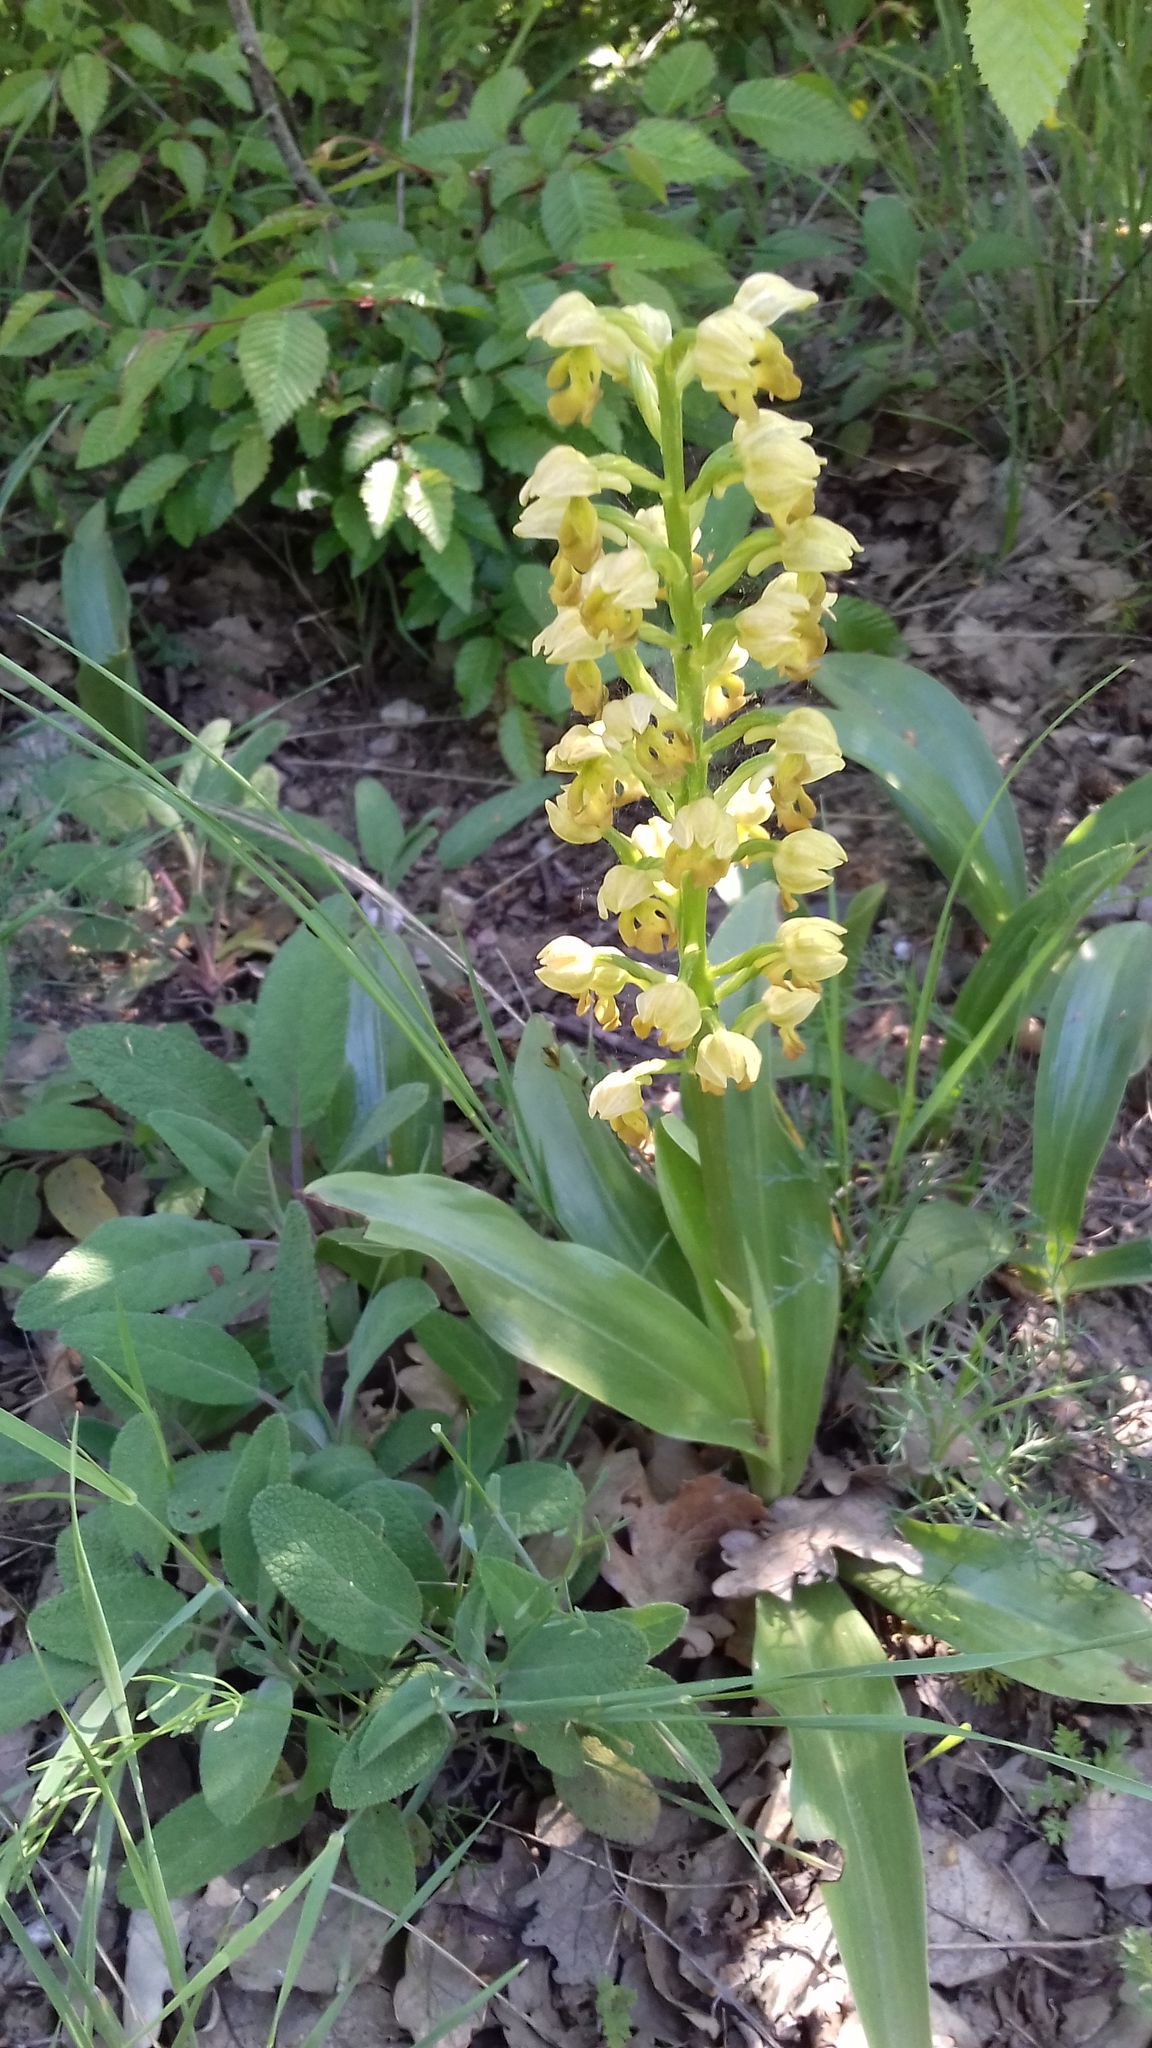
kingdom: Plantae
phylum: Tracheophyta
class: Liliopsida
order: Asparagales
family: Orchidaceae
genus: Orchis
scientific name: Orchis punctulata
